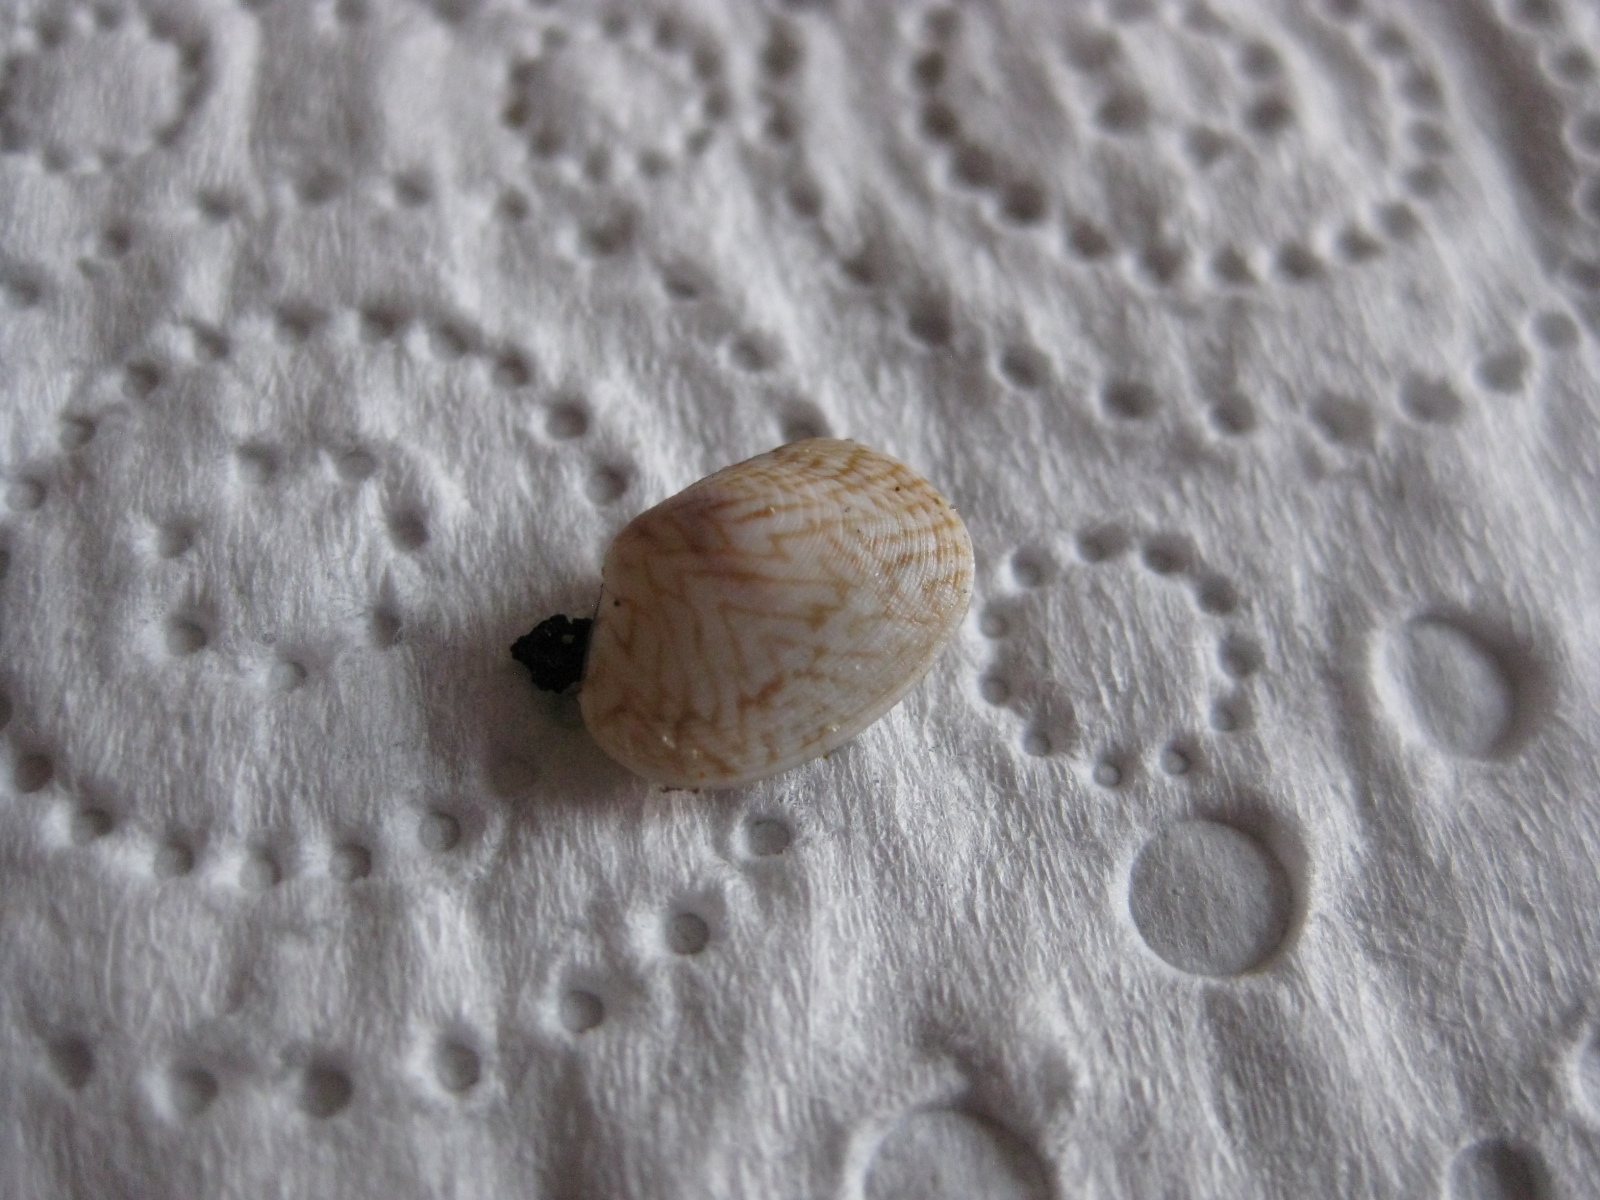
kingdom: Animalia
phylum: Mollusca
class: Bivalvia
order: Venerida
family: Veneridae
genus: Venerupis
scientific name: Venerupis largillierti
